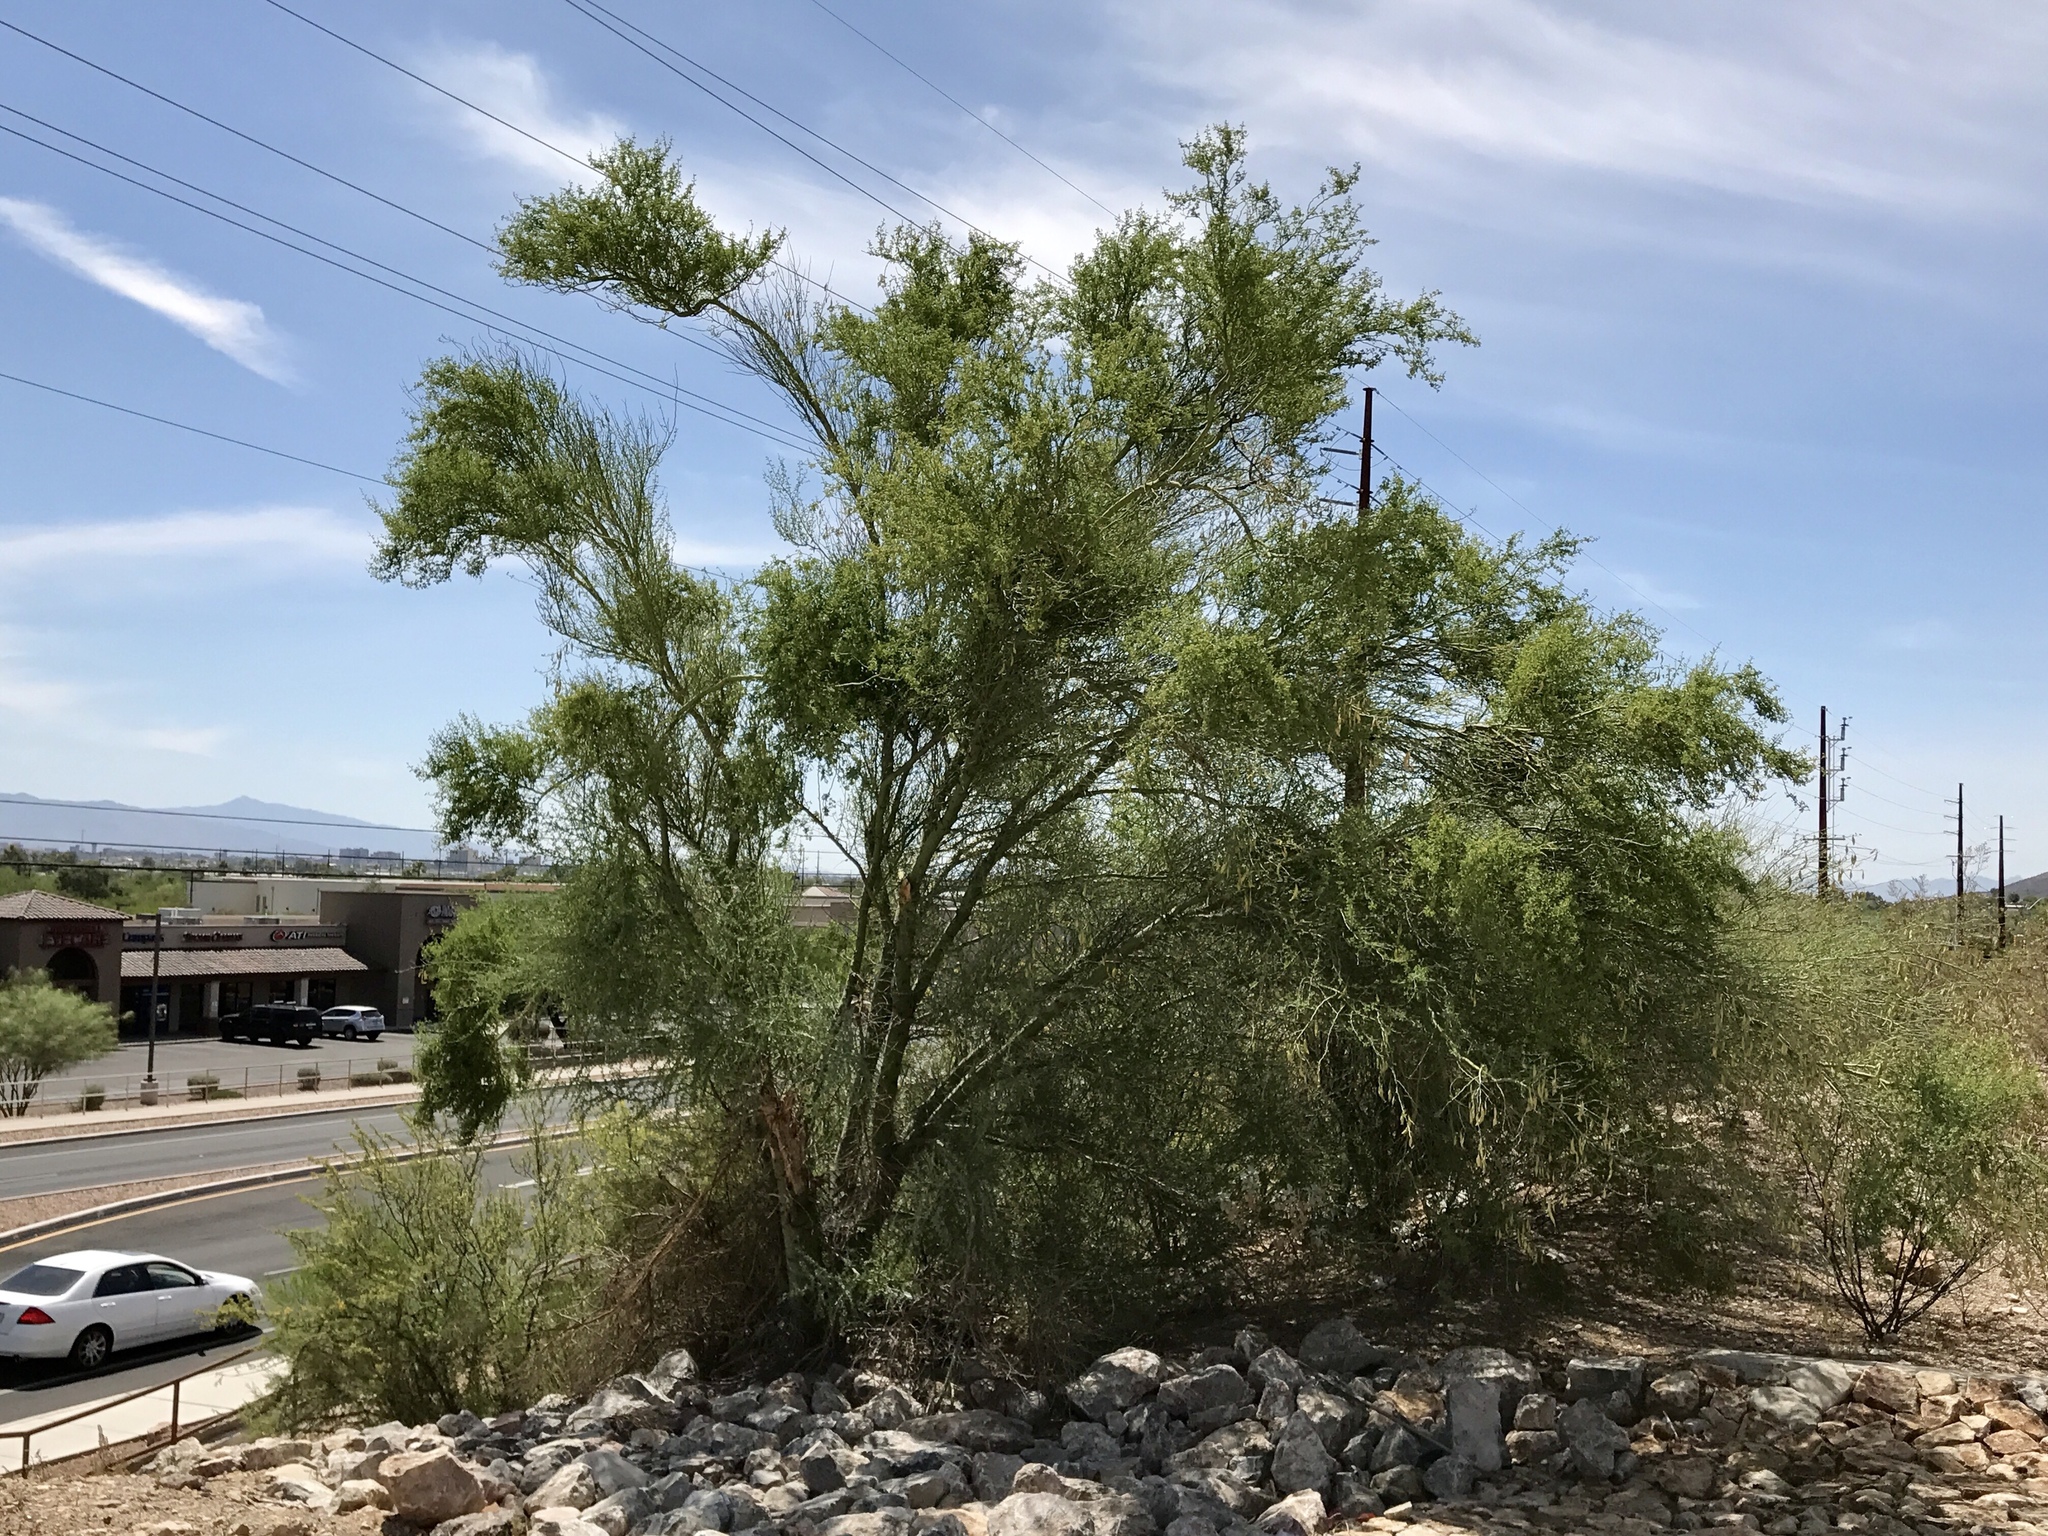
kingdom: Plantae
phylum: Tracheophyta
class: Magnoliopsida
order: Fabales
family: Fabaceae
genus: Parkinsonia
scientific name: Parkinsonia florida
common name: Blue paloverde
